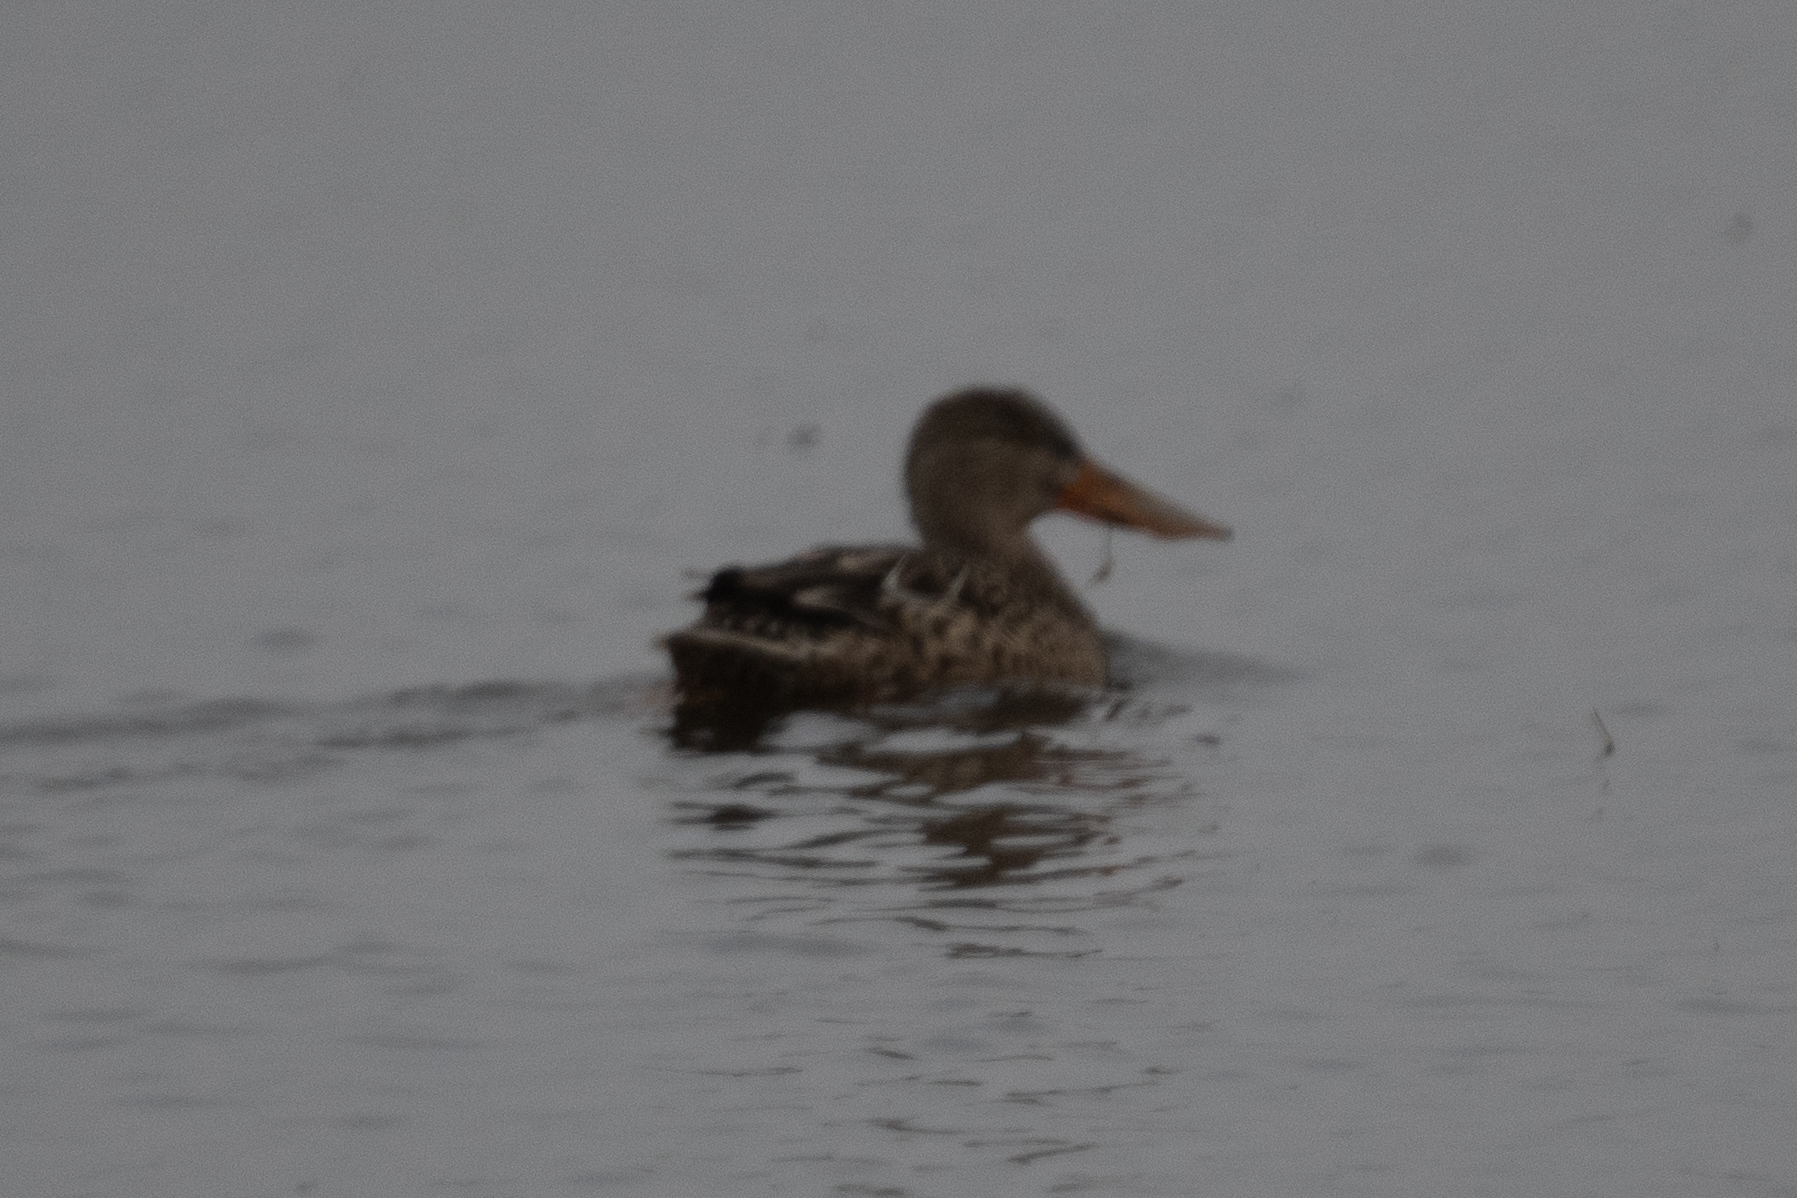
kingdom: Animalia
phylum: Chordata
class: Aves
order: Anseriformes
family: Anatidae
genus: Spatula
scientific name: Spatula clypeata
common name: Northern shoveler
